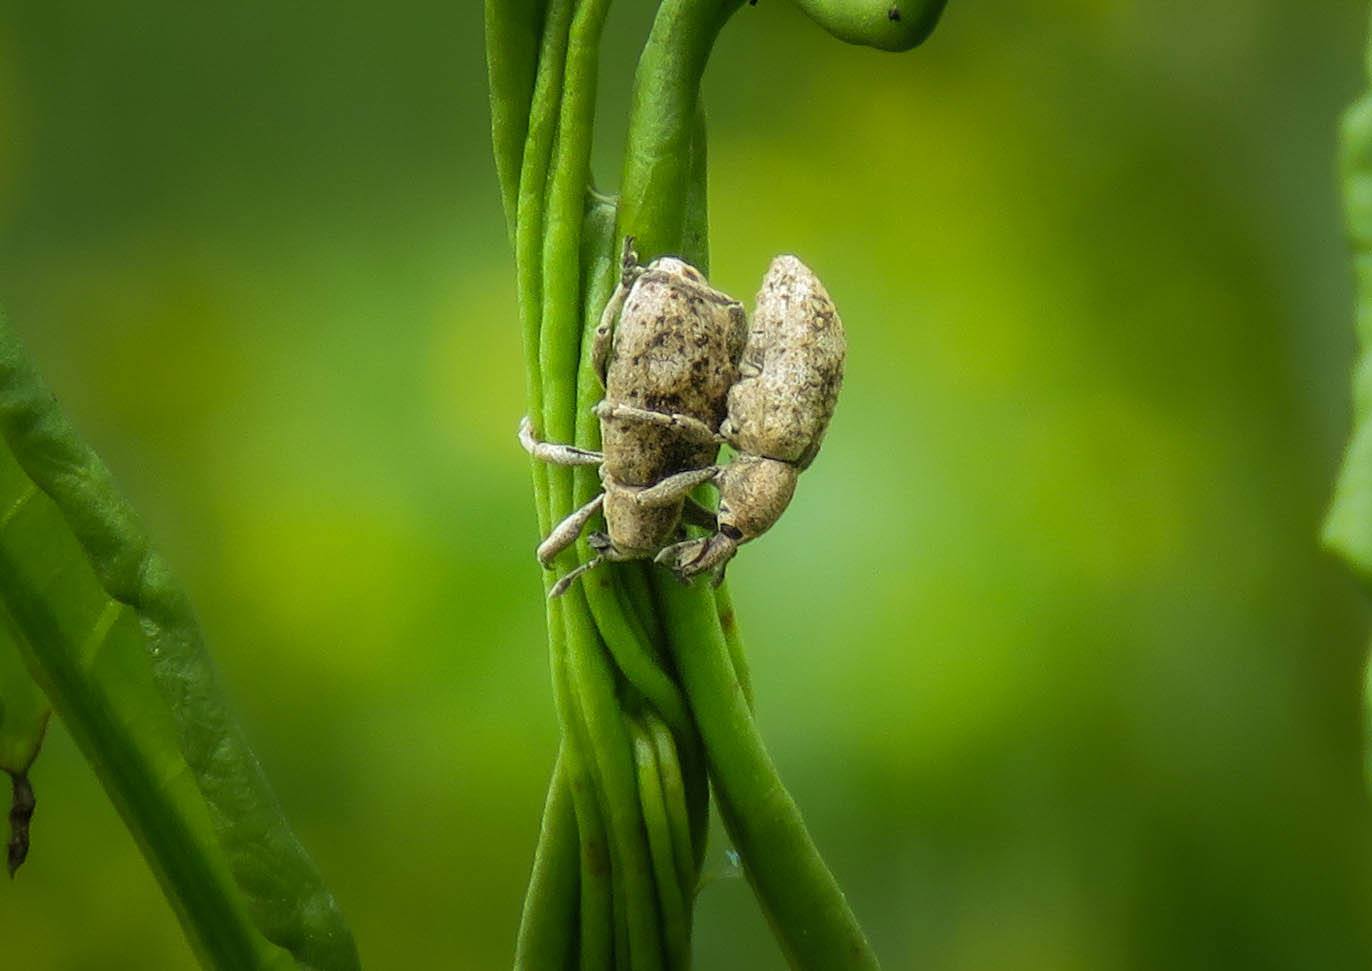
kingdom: Animalia
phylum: Arthropoda
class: Insecta
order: Coleoptera
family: Brachyceridae
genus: Icaris
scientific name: Icaris sparganii
